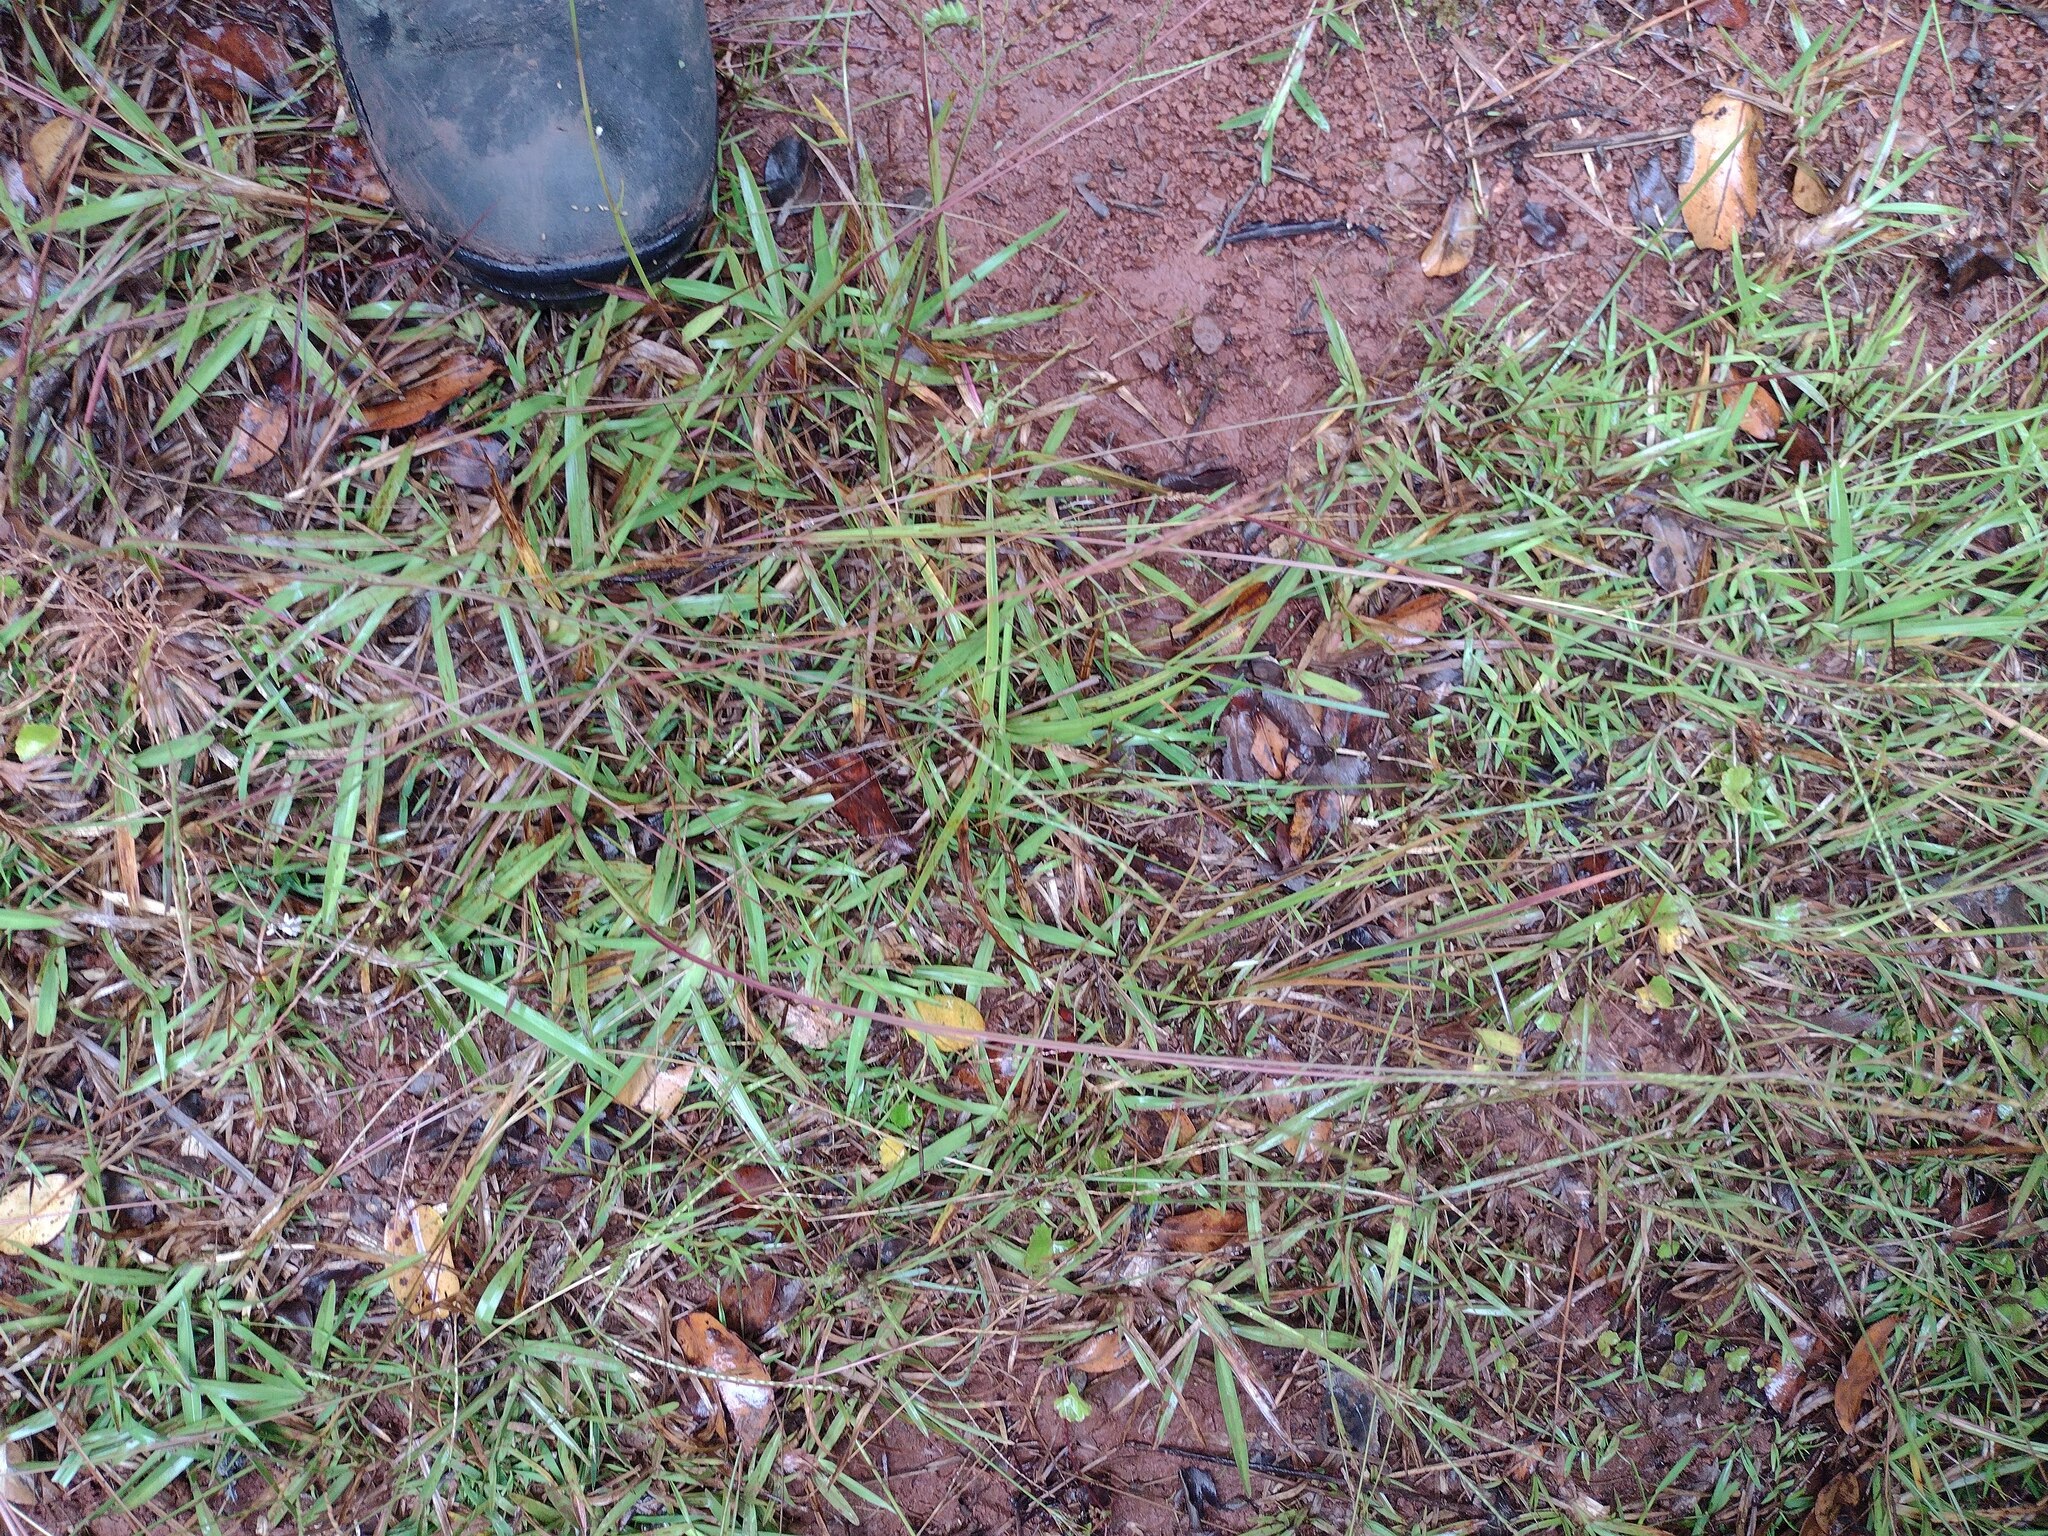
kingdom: Plantae
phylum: Tracheophyta
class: Liliopsida
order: Poales
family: Poaceae
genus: Axonopus
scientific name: Axonopus fissifolius
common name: Common carpetgrass
